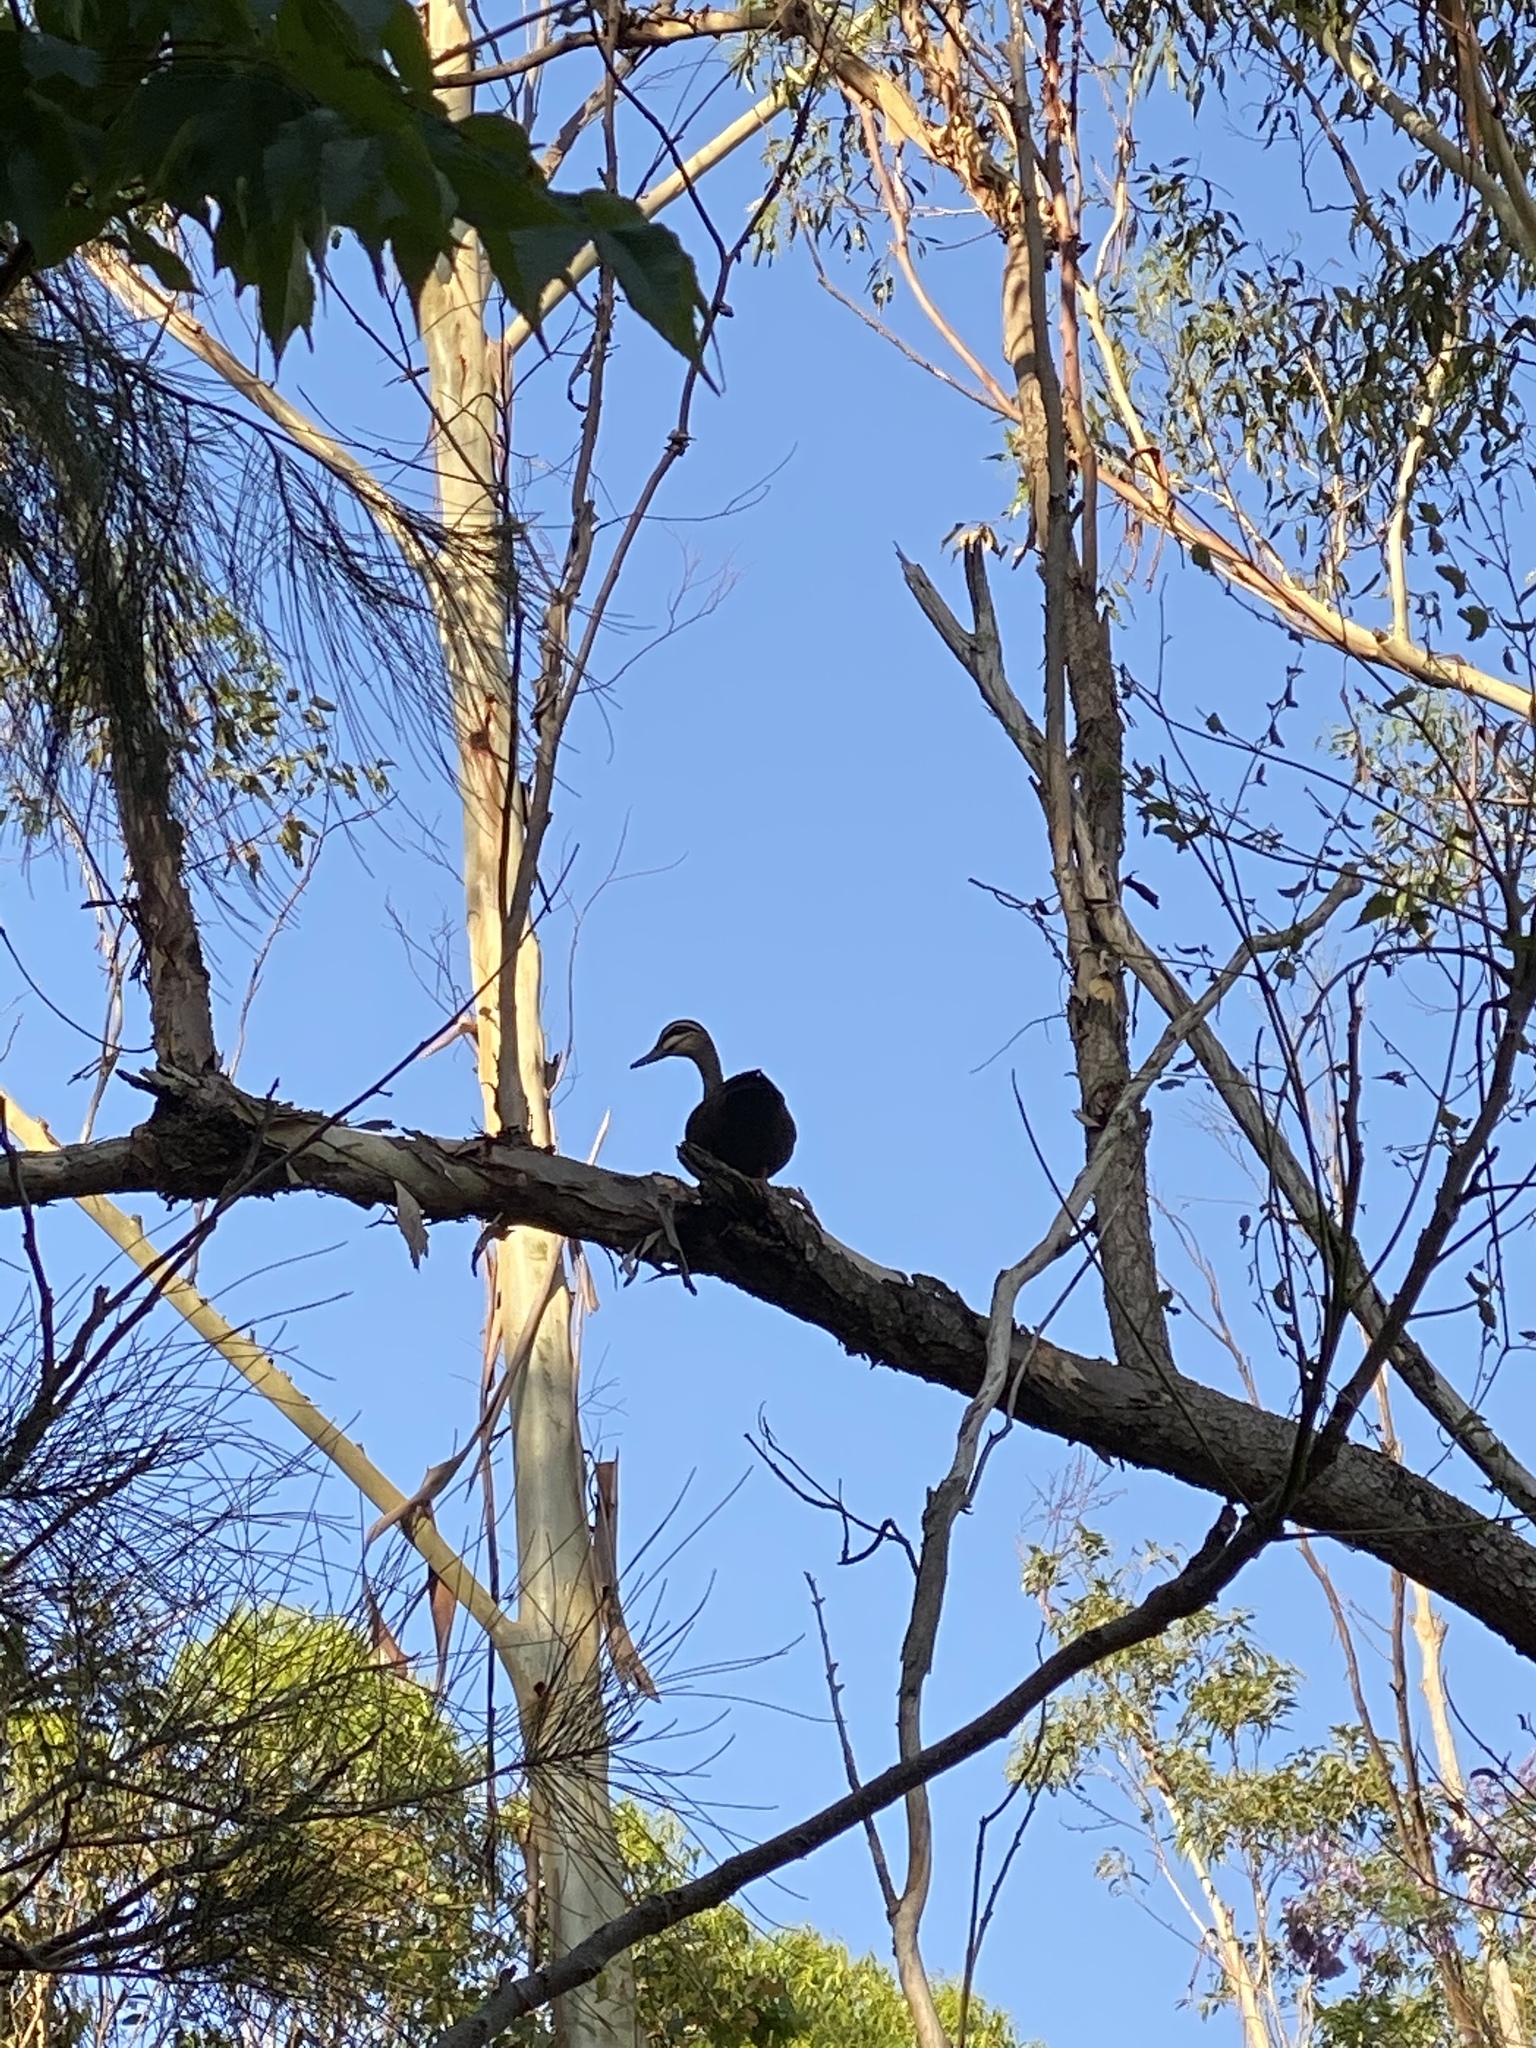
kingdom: Animalia
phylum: Chordata
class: Aves
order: Anseriformes
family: Anatidae
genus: Anas
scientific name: Anas superciliosa
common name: Pacific black duck
